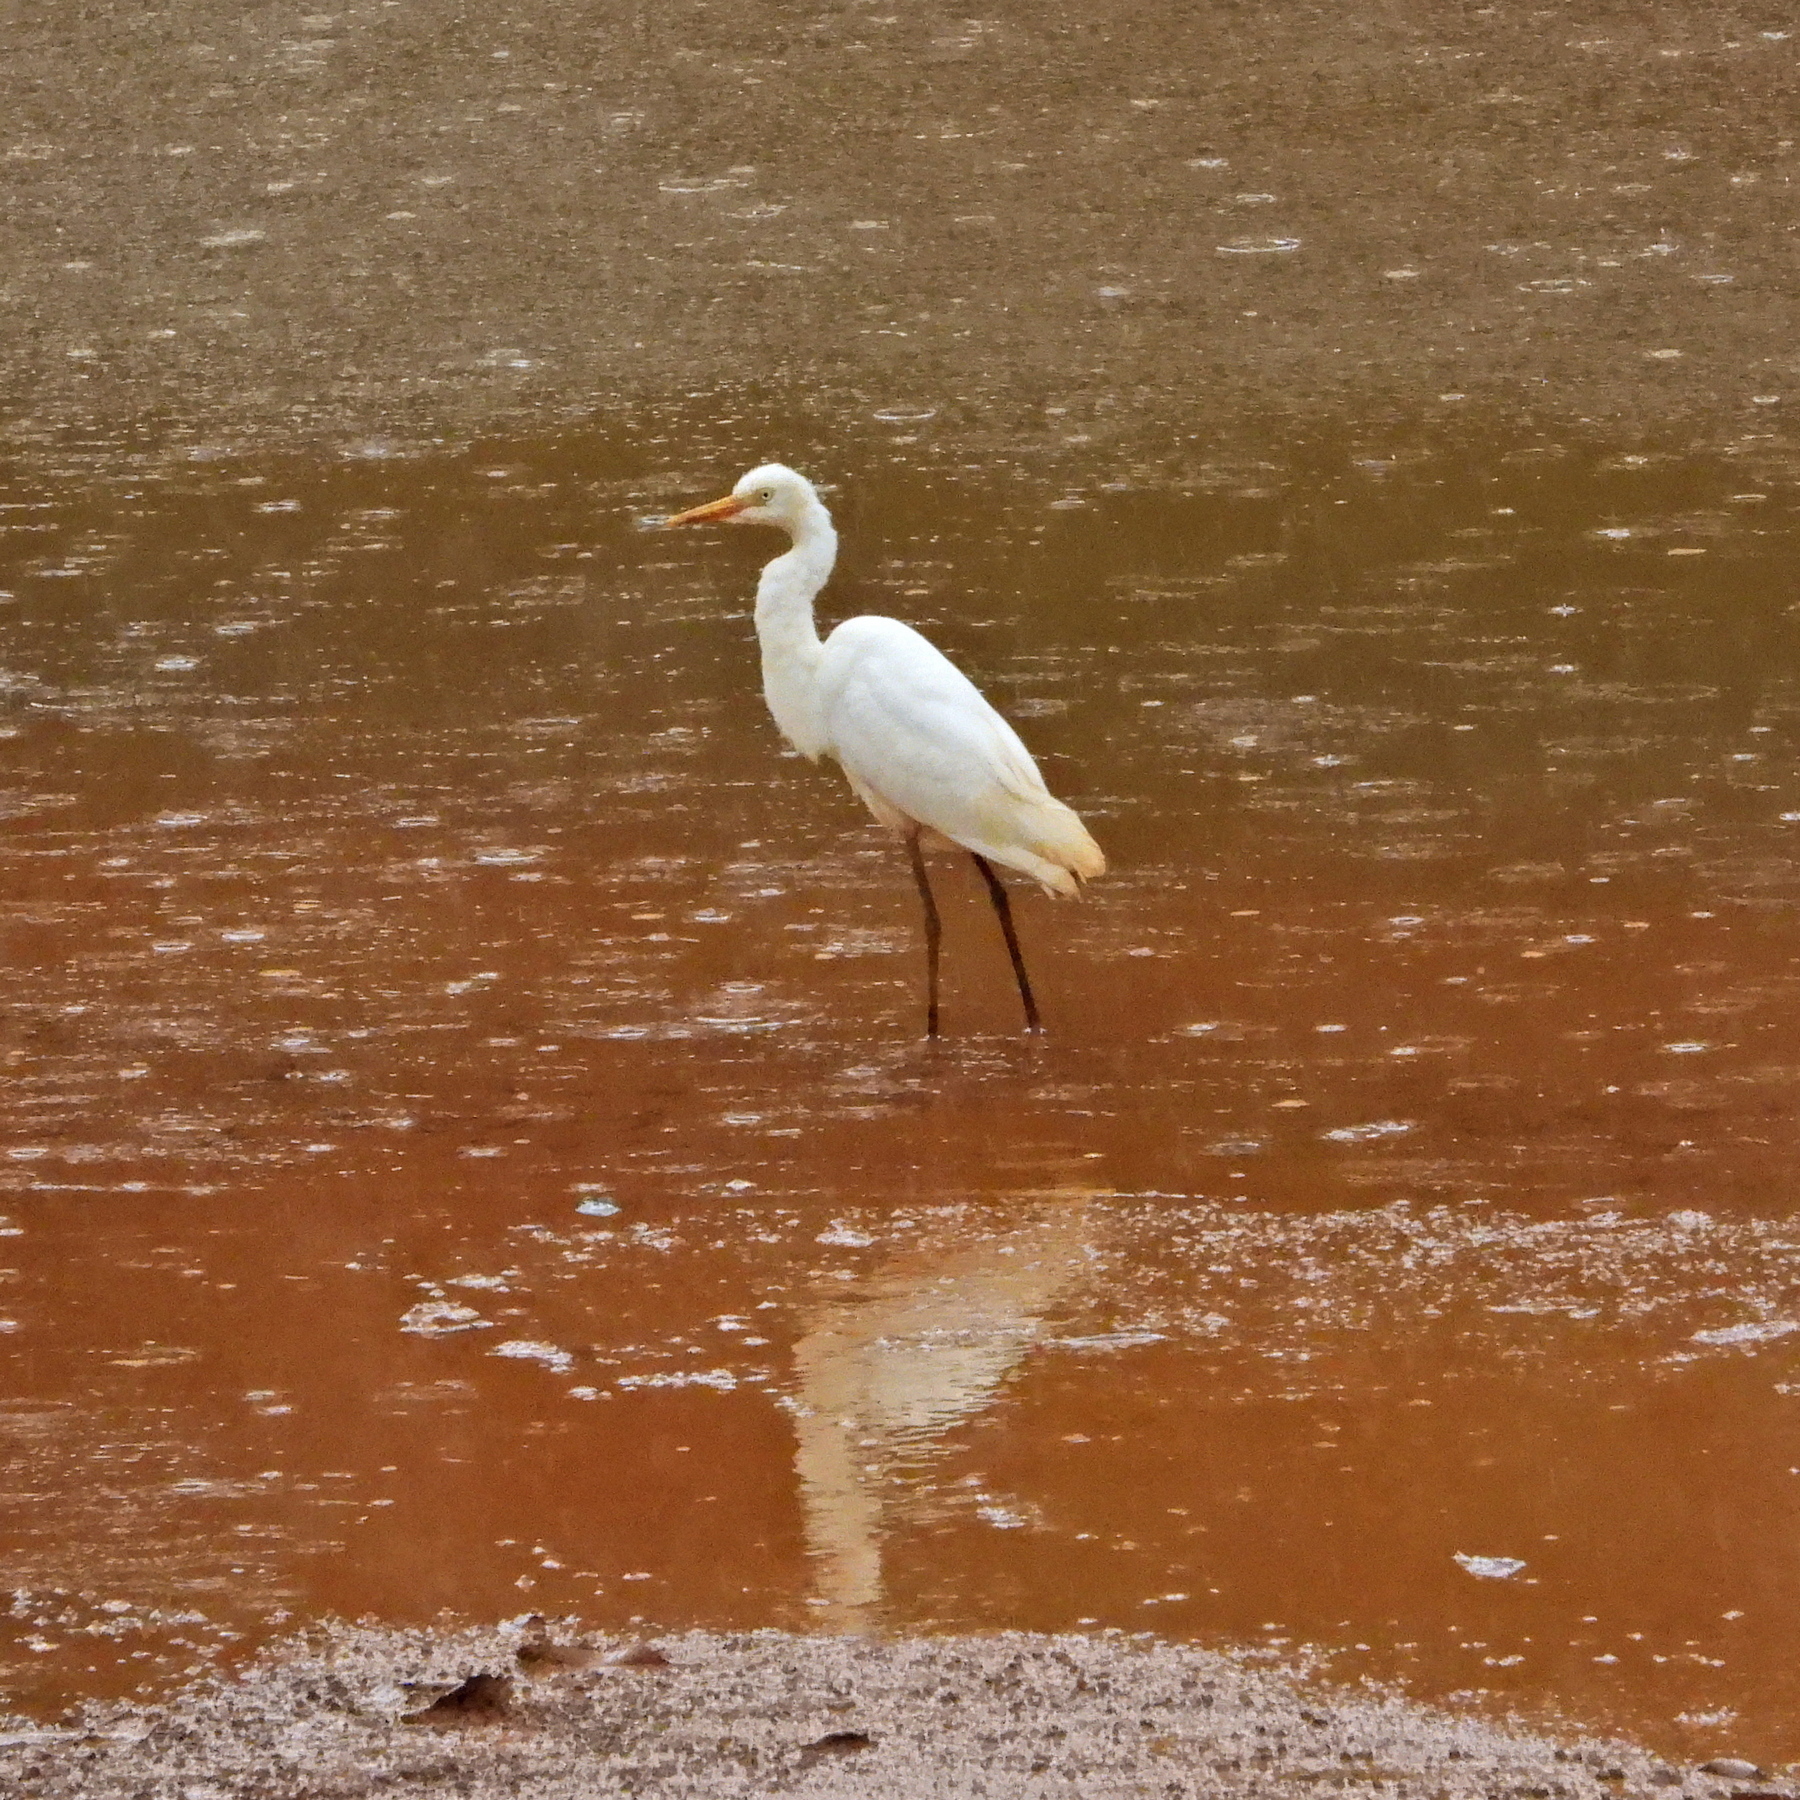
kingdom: Animalia
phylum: Chordata
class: Aves
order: Pelecaniformes
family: Ardeidae
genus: Egretta
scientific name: Egretta intermedia
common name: Intermediate egret
